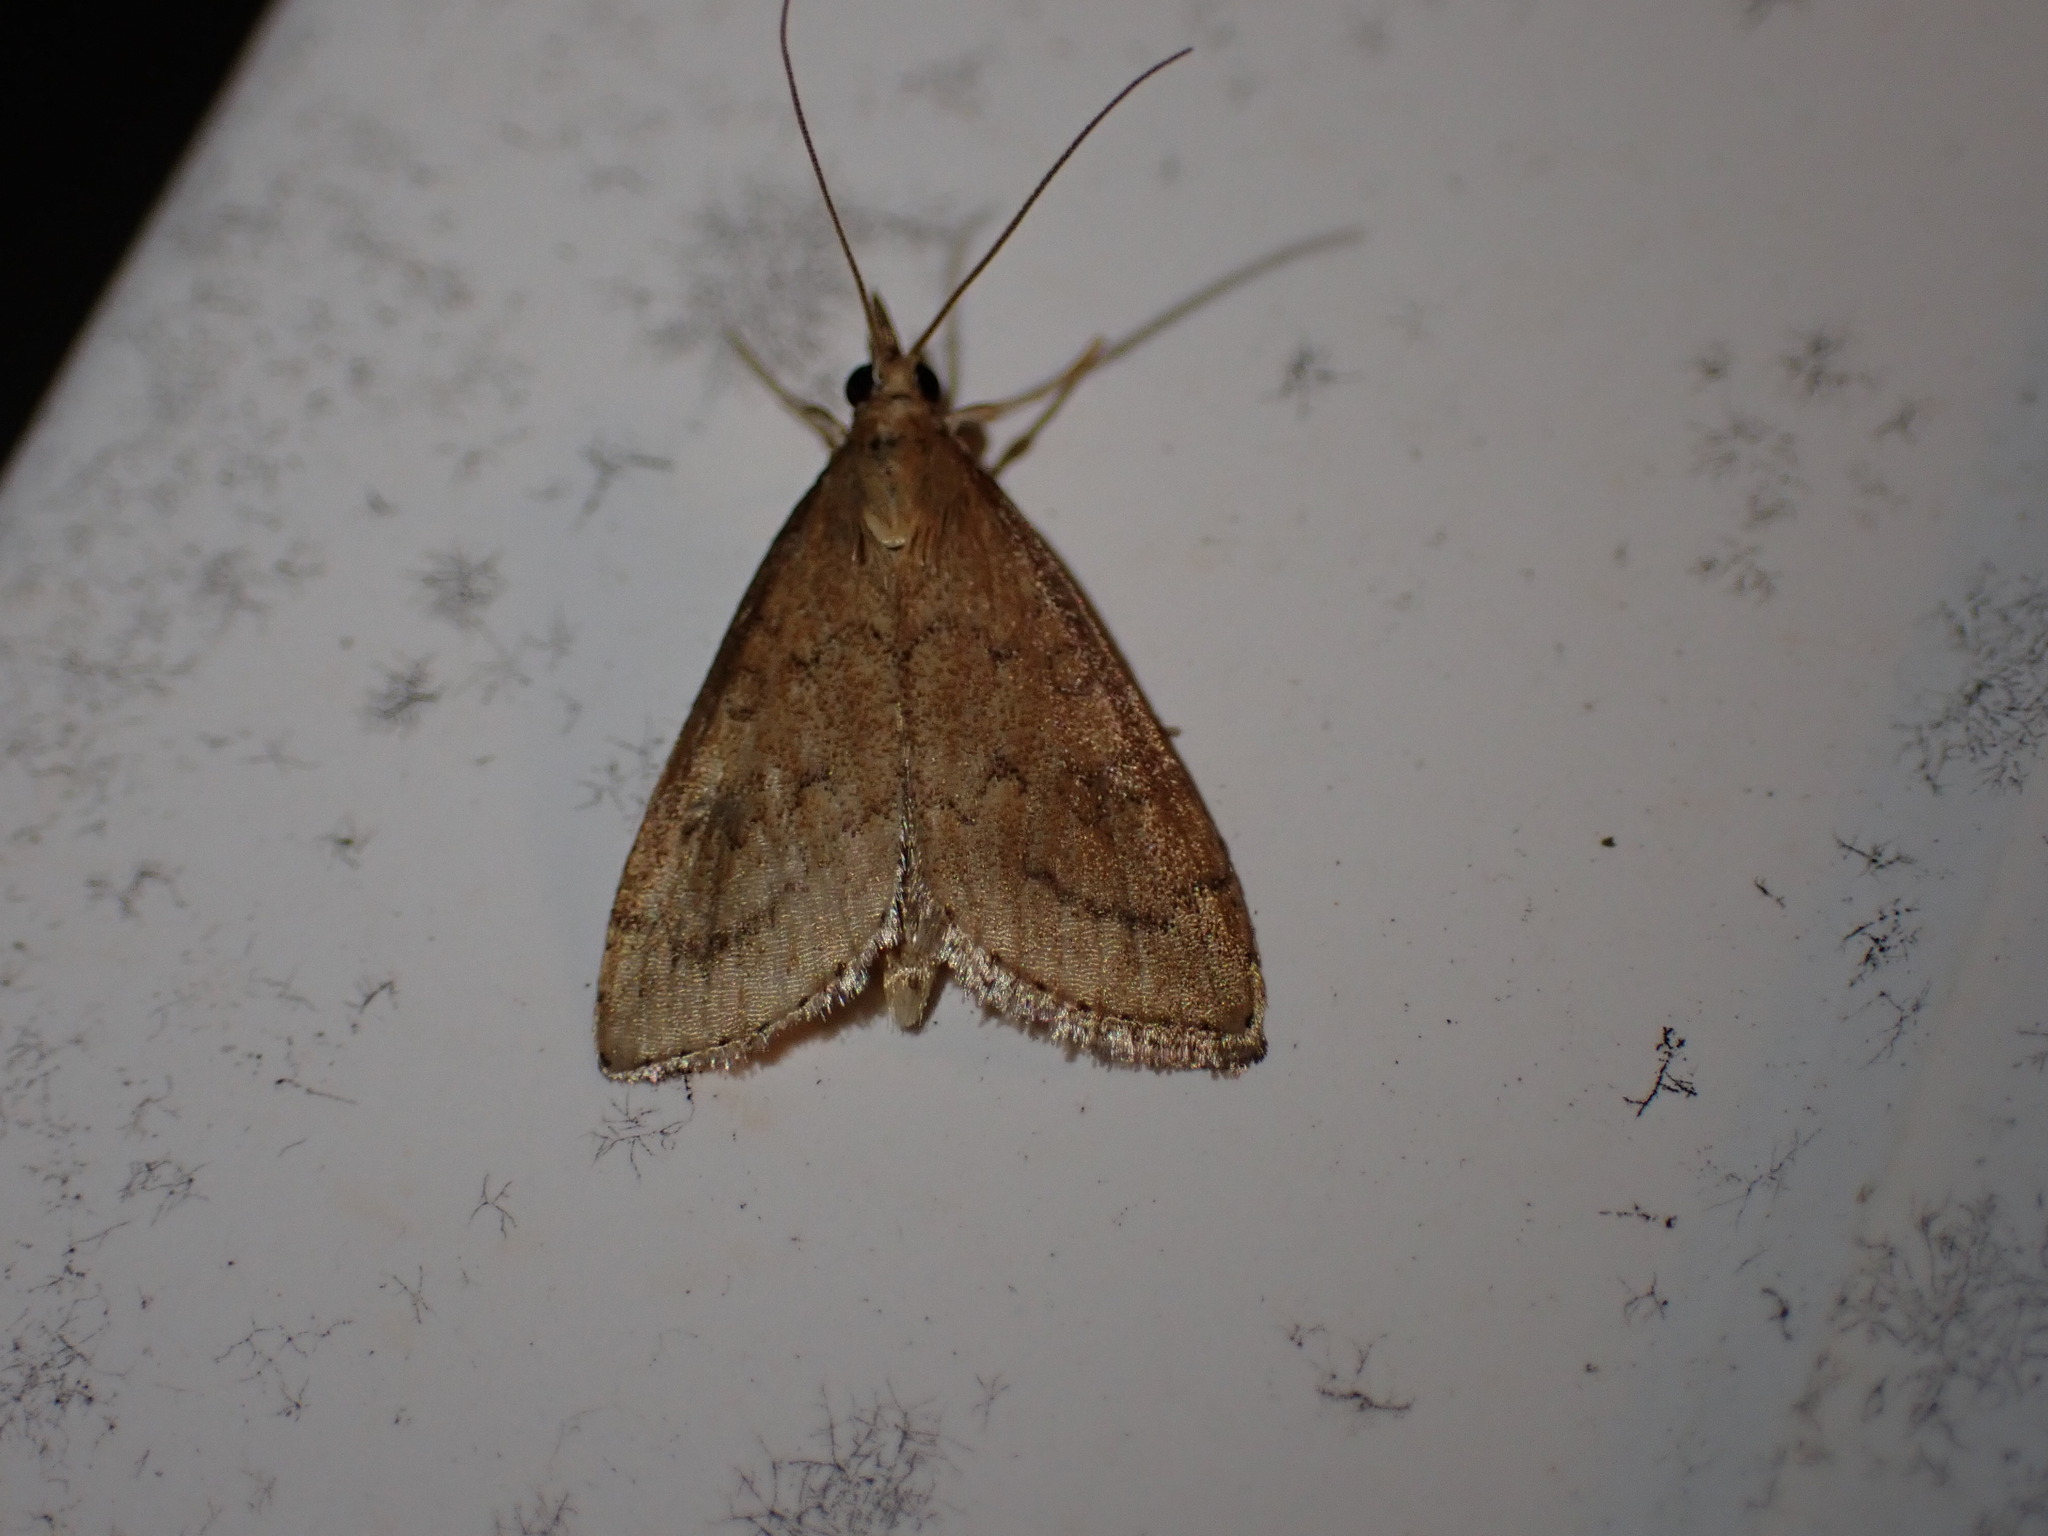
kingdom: Animalia
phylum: Arthropoda
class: Insecta
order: Lepidoptera
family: Crambidae
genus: Udea
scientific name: Udea rubigalis
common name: Celery leaftier moth
